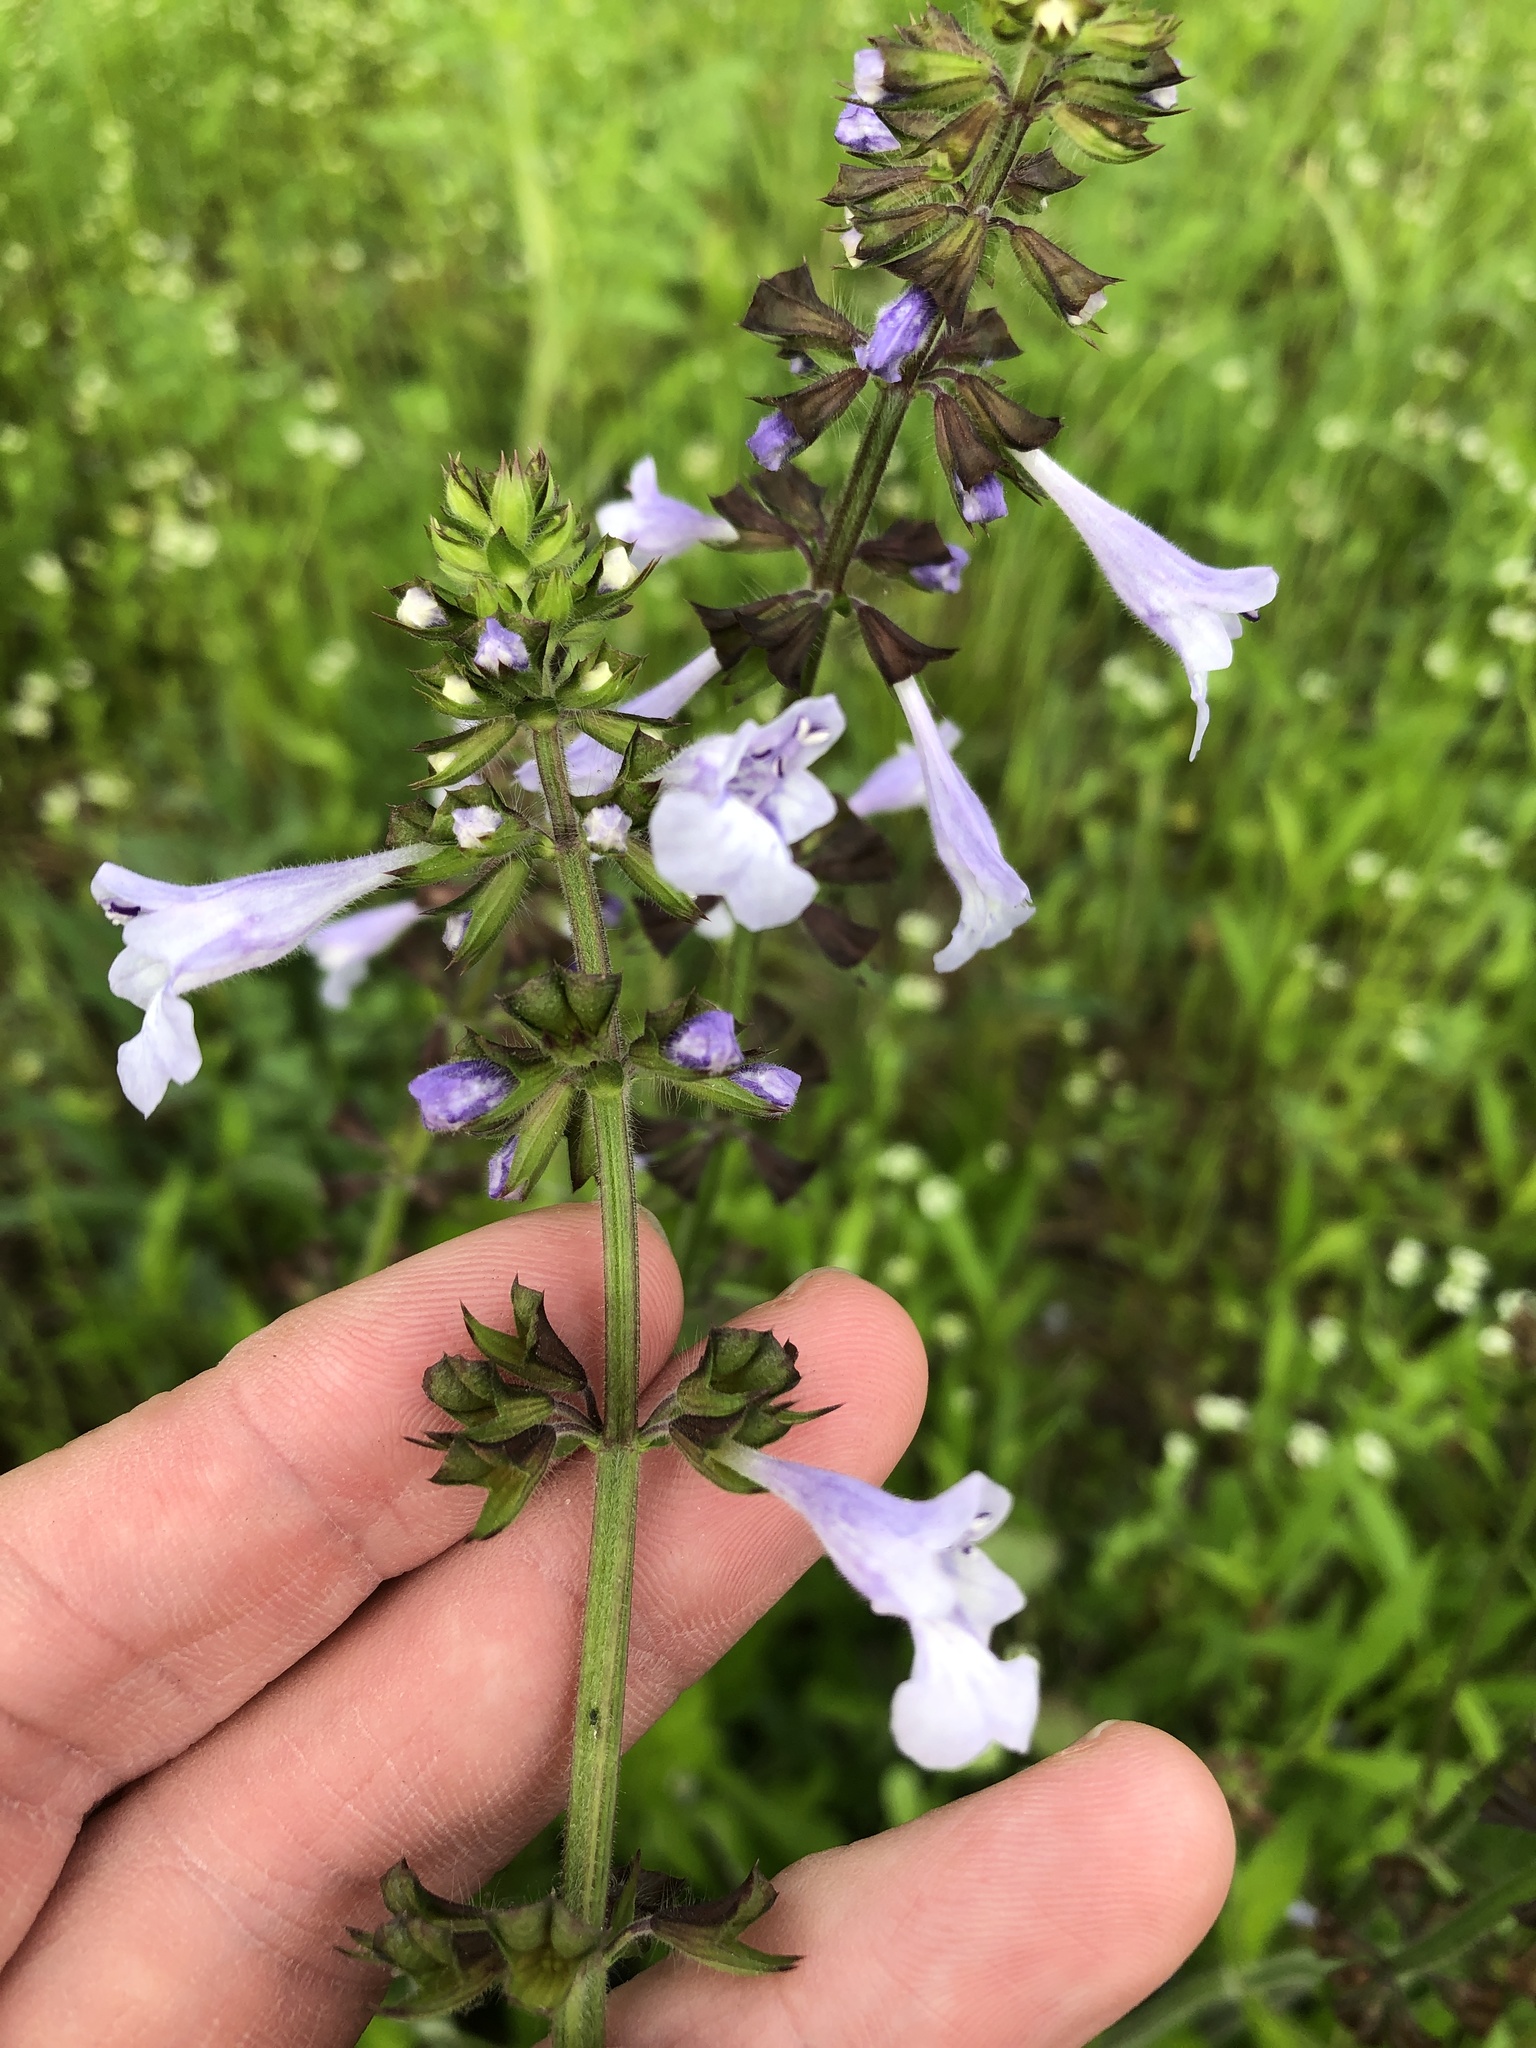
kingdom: Plantae
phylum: Tracheophyta
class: Magnoliopsida
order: Lamiales
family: Lamiaceae
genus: Salvia
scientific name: Salvia lyrata
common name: Cancerweed
